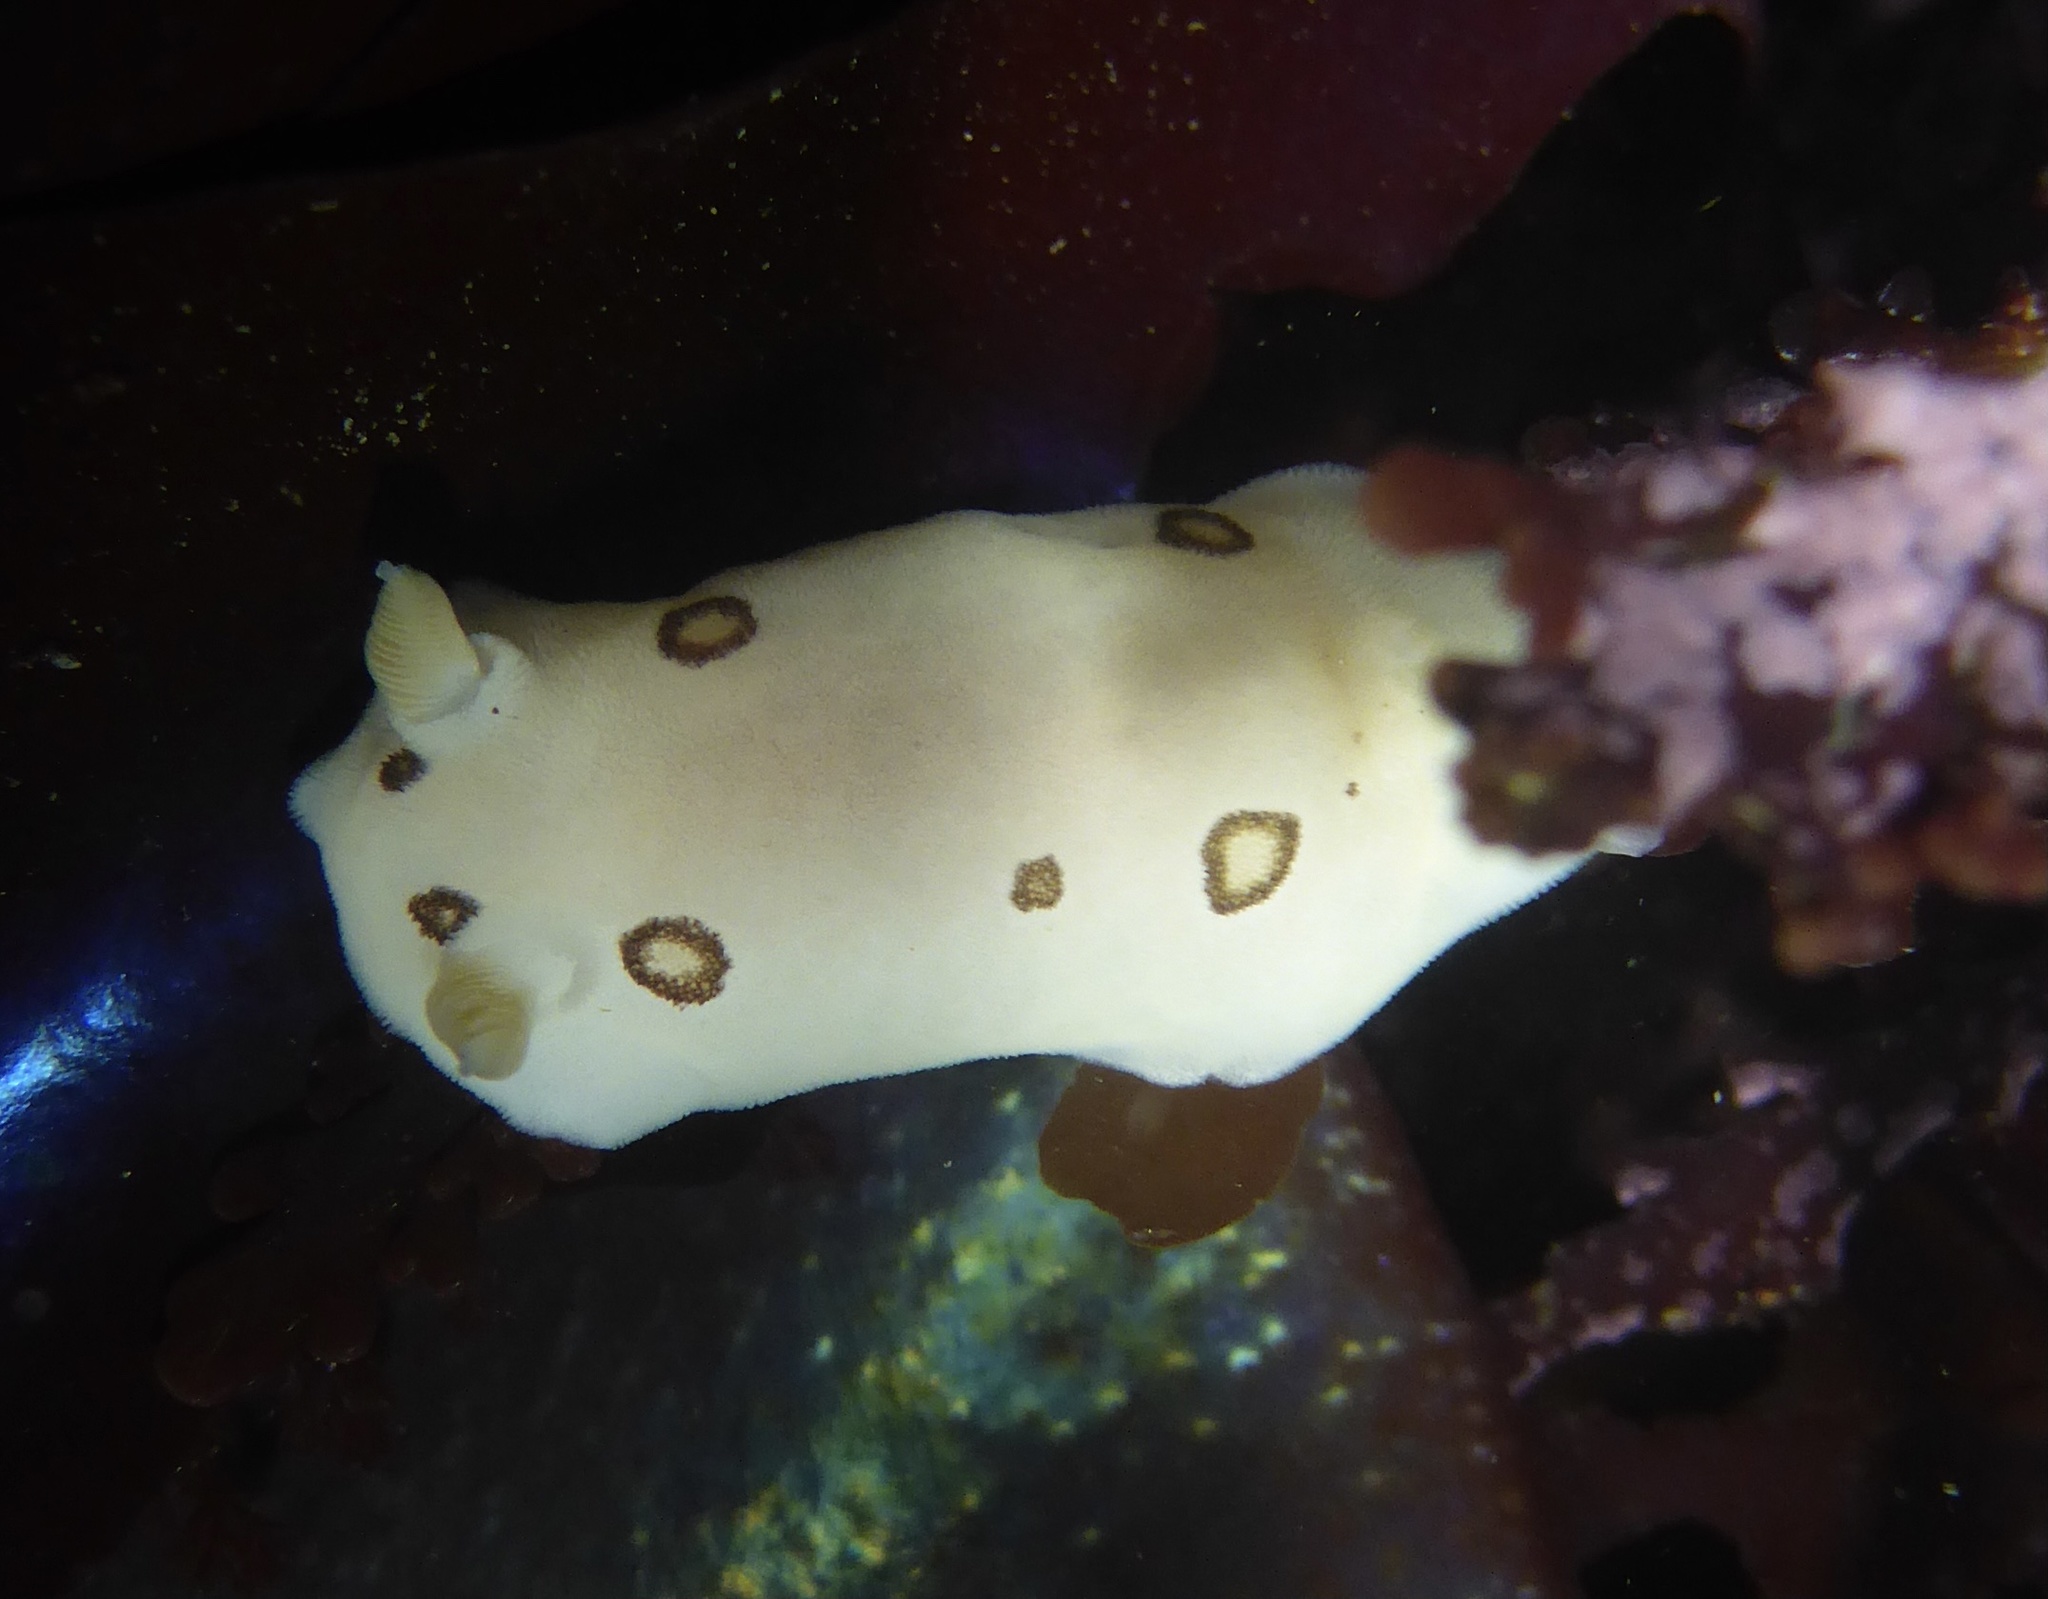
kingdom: Animalia
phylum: Mollusca
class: Gastropoda
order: Nudibranchia
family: Discodorididae
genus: Diaulula
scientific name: Diaulula sandiegensis
